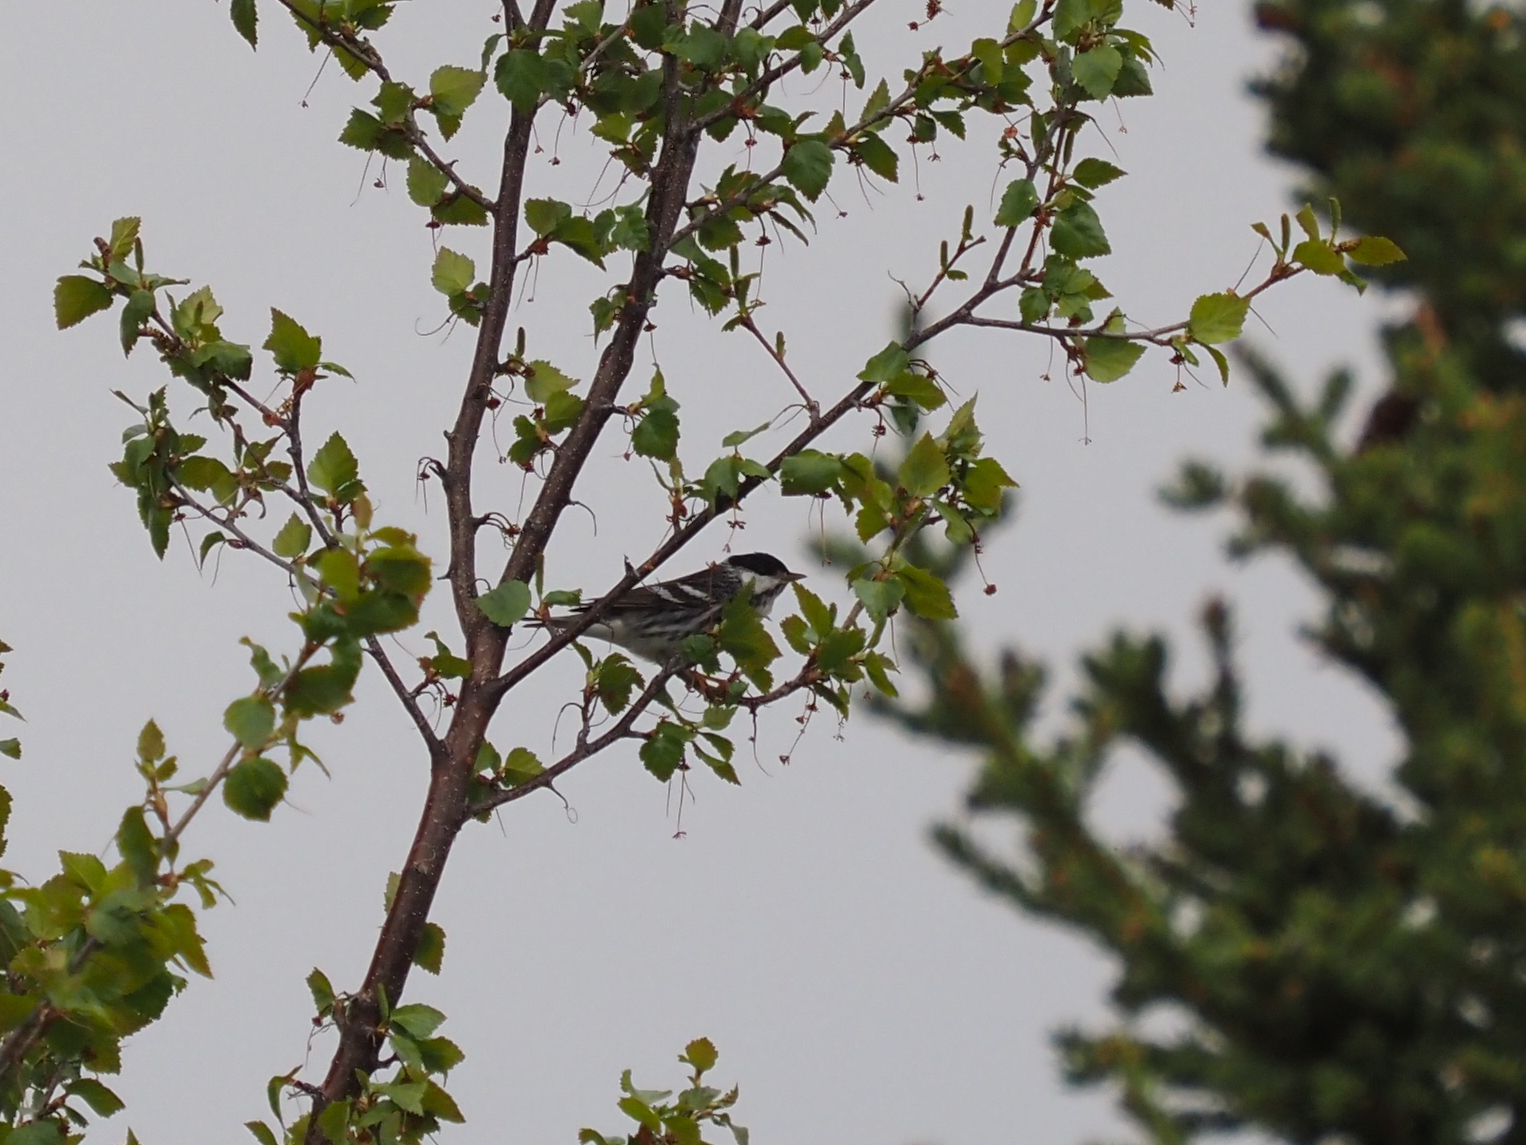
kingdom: Animalia
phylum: Chordata
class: Aves
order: Passeriformes
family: Parulidae
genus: Setophaga
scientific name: Setophaga striata
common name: Blackpoll warbler
